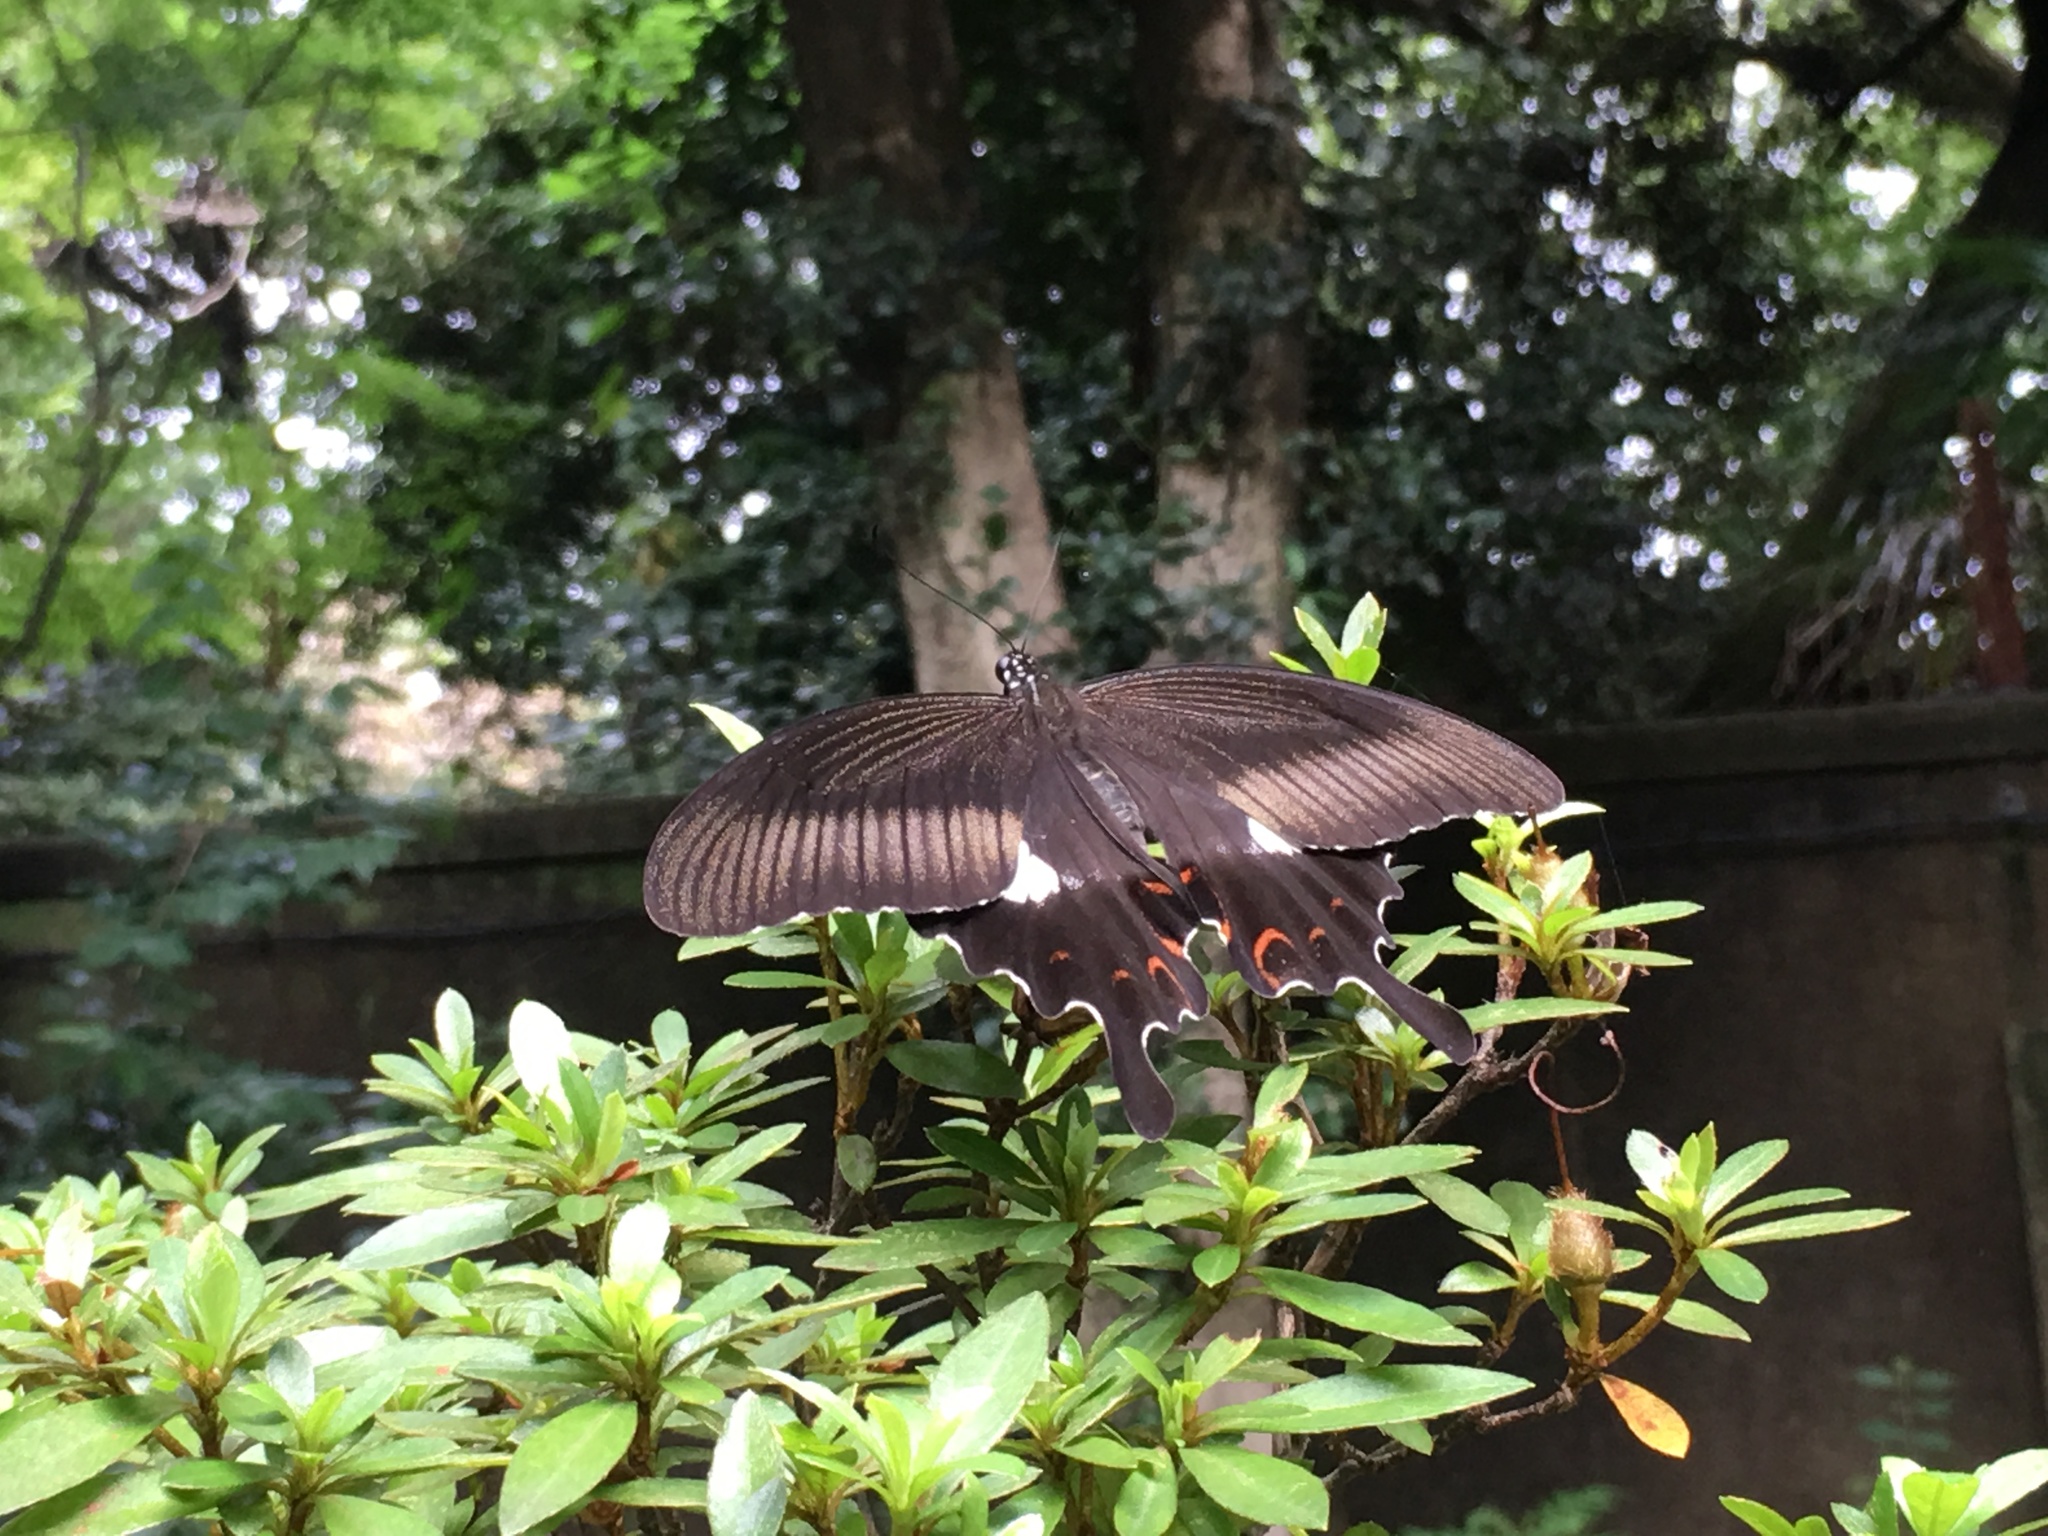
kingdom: Animalia
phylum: Arthropoda
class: Insecta
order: Lepidoptera
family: Papilionidae
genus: Papilio
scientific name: Papilio helenus
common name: Red helen
